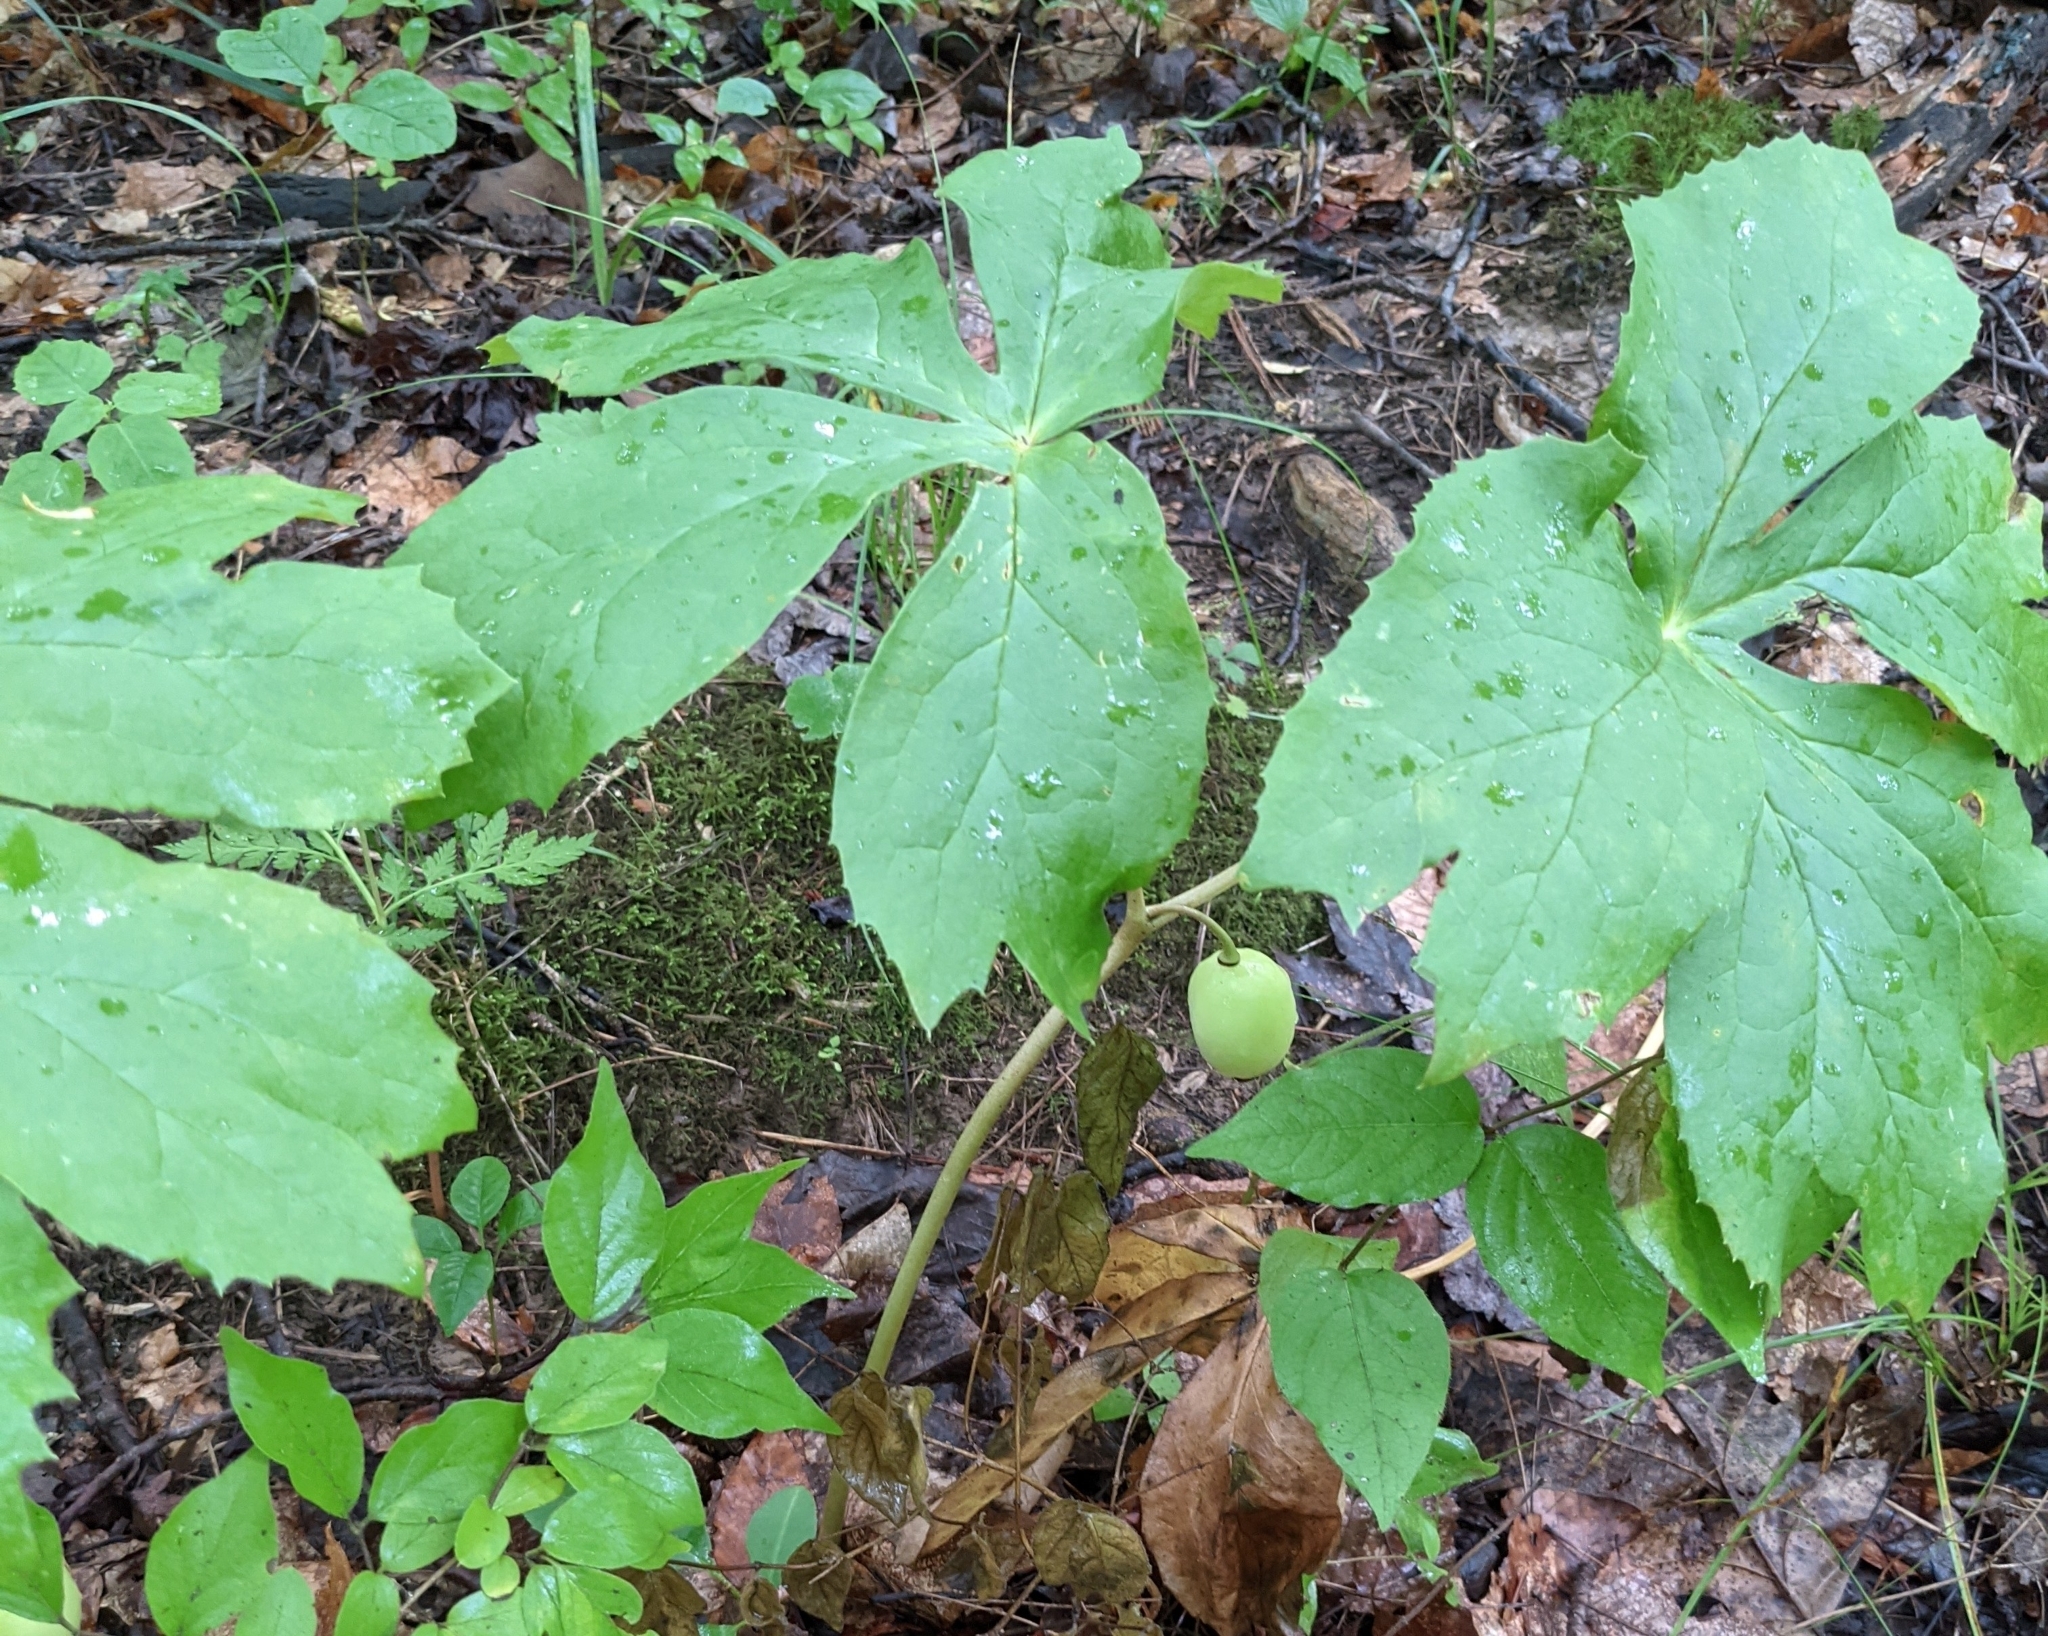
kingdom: Plantae
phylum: Tracheophyta
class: Magnoliopsida
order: Ranunculales
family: Berberidaceae
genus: Podophyllum
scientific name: Podophyllum peltatum
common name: Wild mandrake
